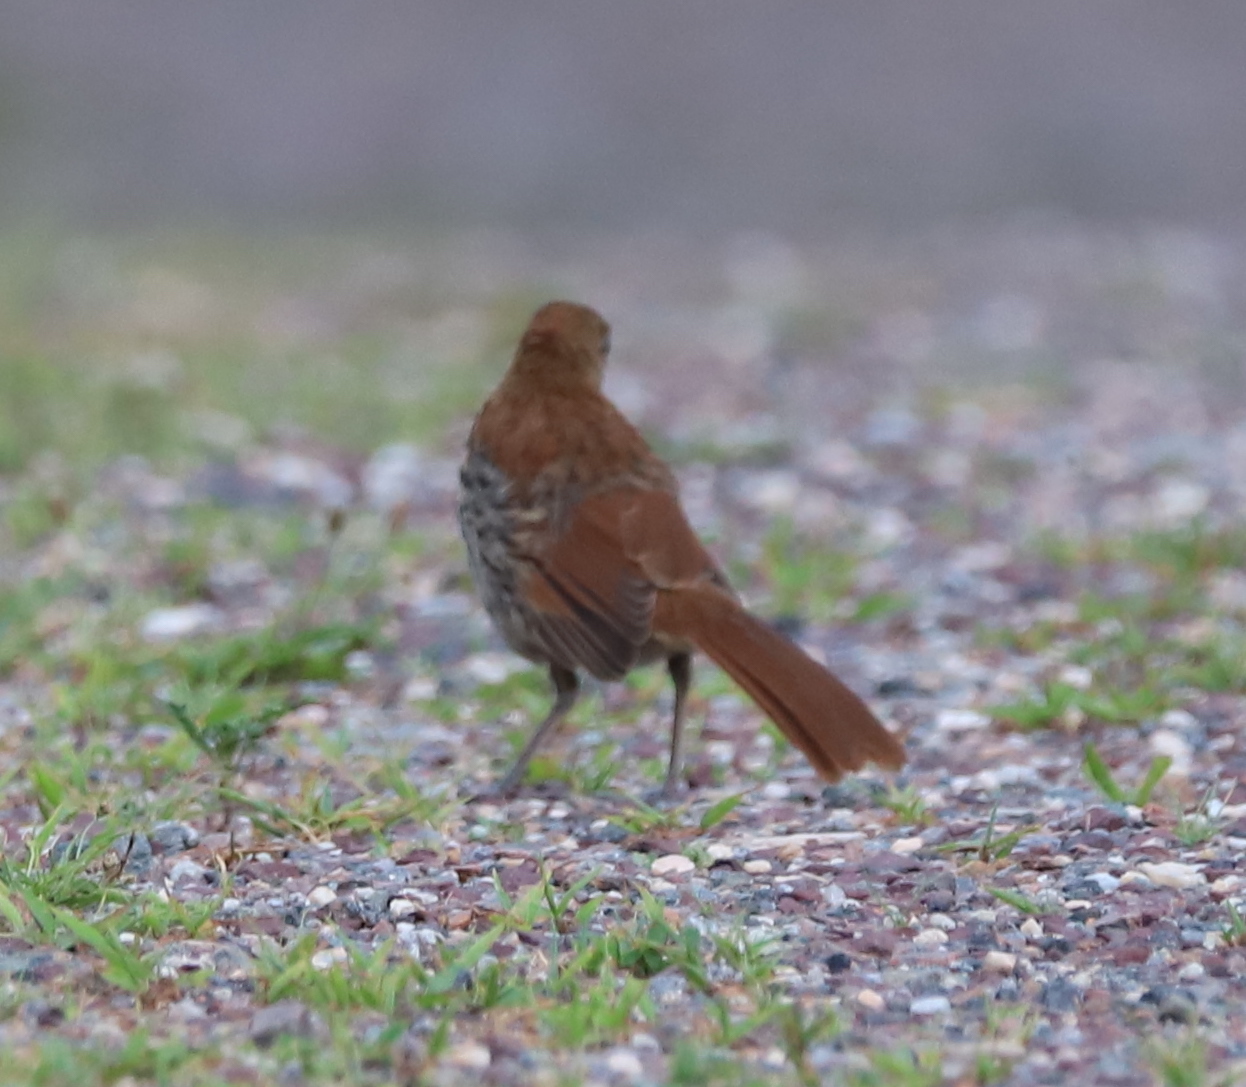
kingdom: Animalia
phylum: Chordata
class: Aves
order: Passeriformes
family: Mimidae
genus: Toxostoma
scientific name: Toxostoma rufum
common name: Brown thrasher
